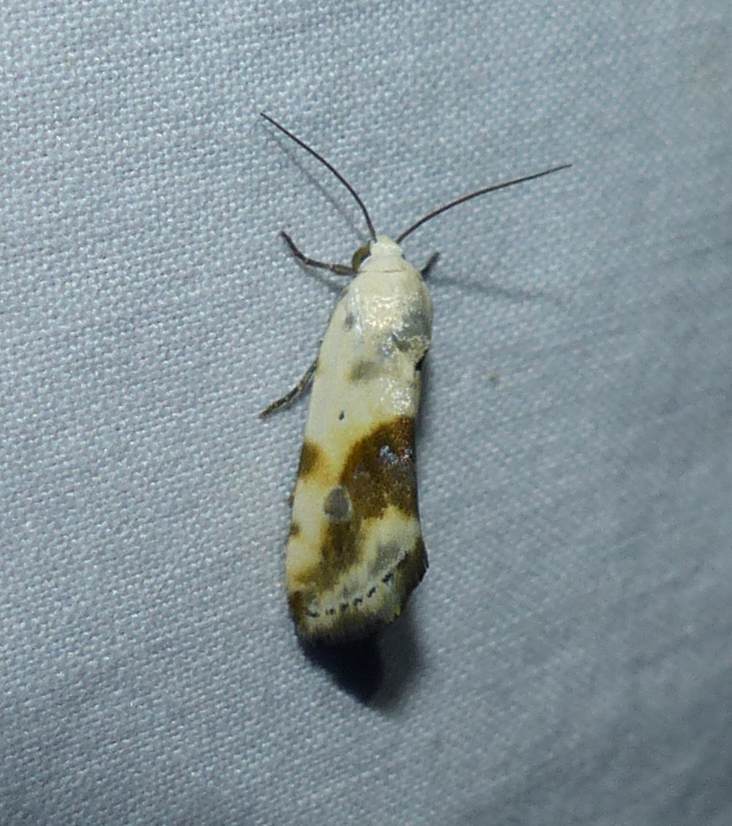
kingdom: Animalia
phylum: Arthropoda
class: Insecta
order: Lepidoptera
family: Noctuidae
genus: Acontia
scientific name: Acontia candefacta
